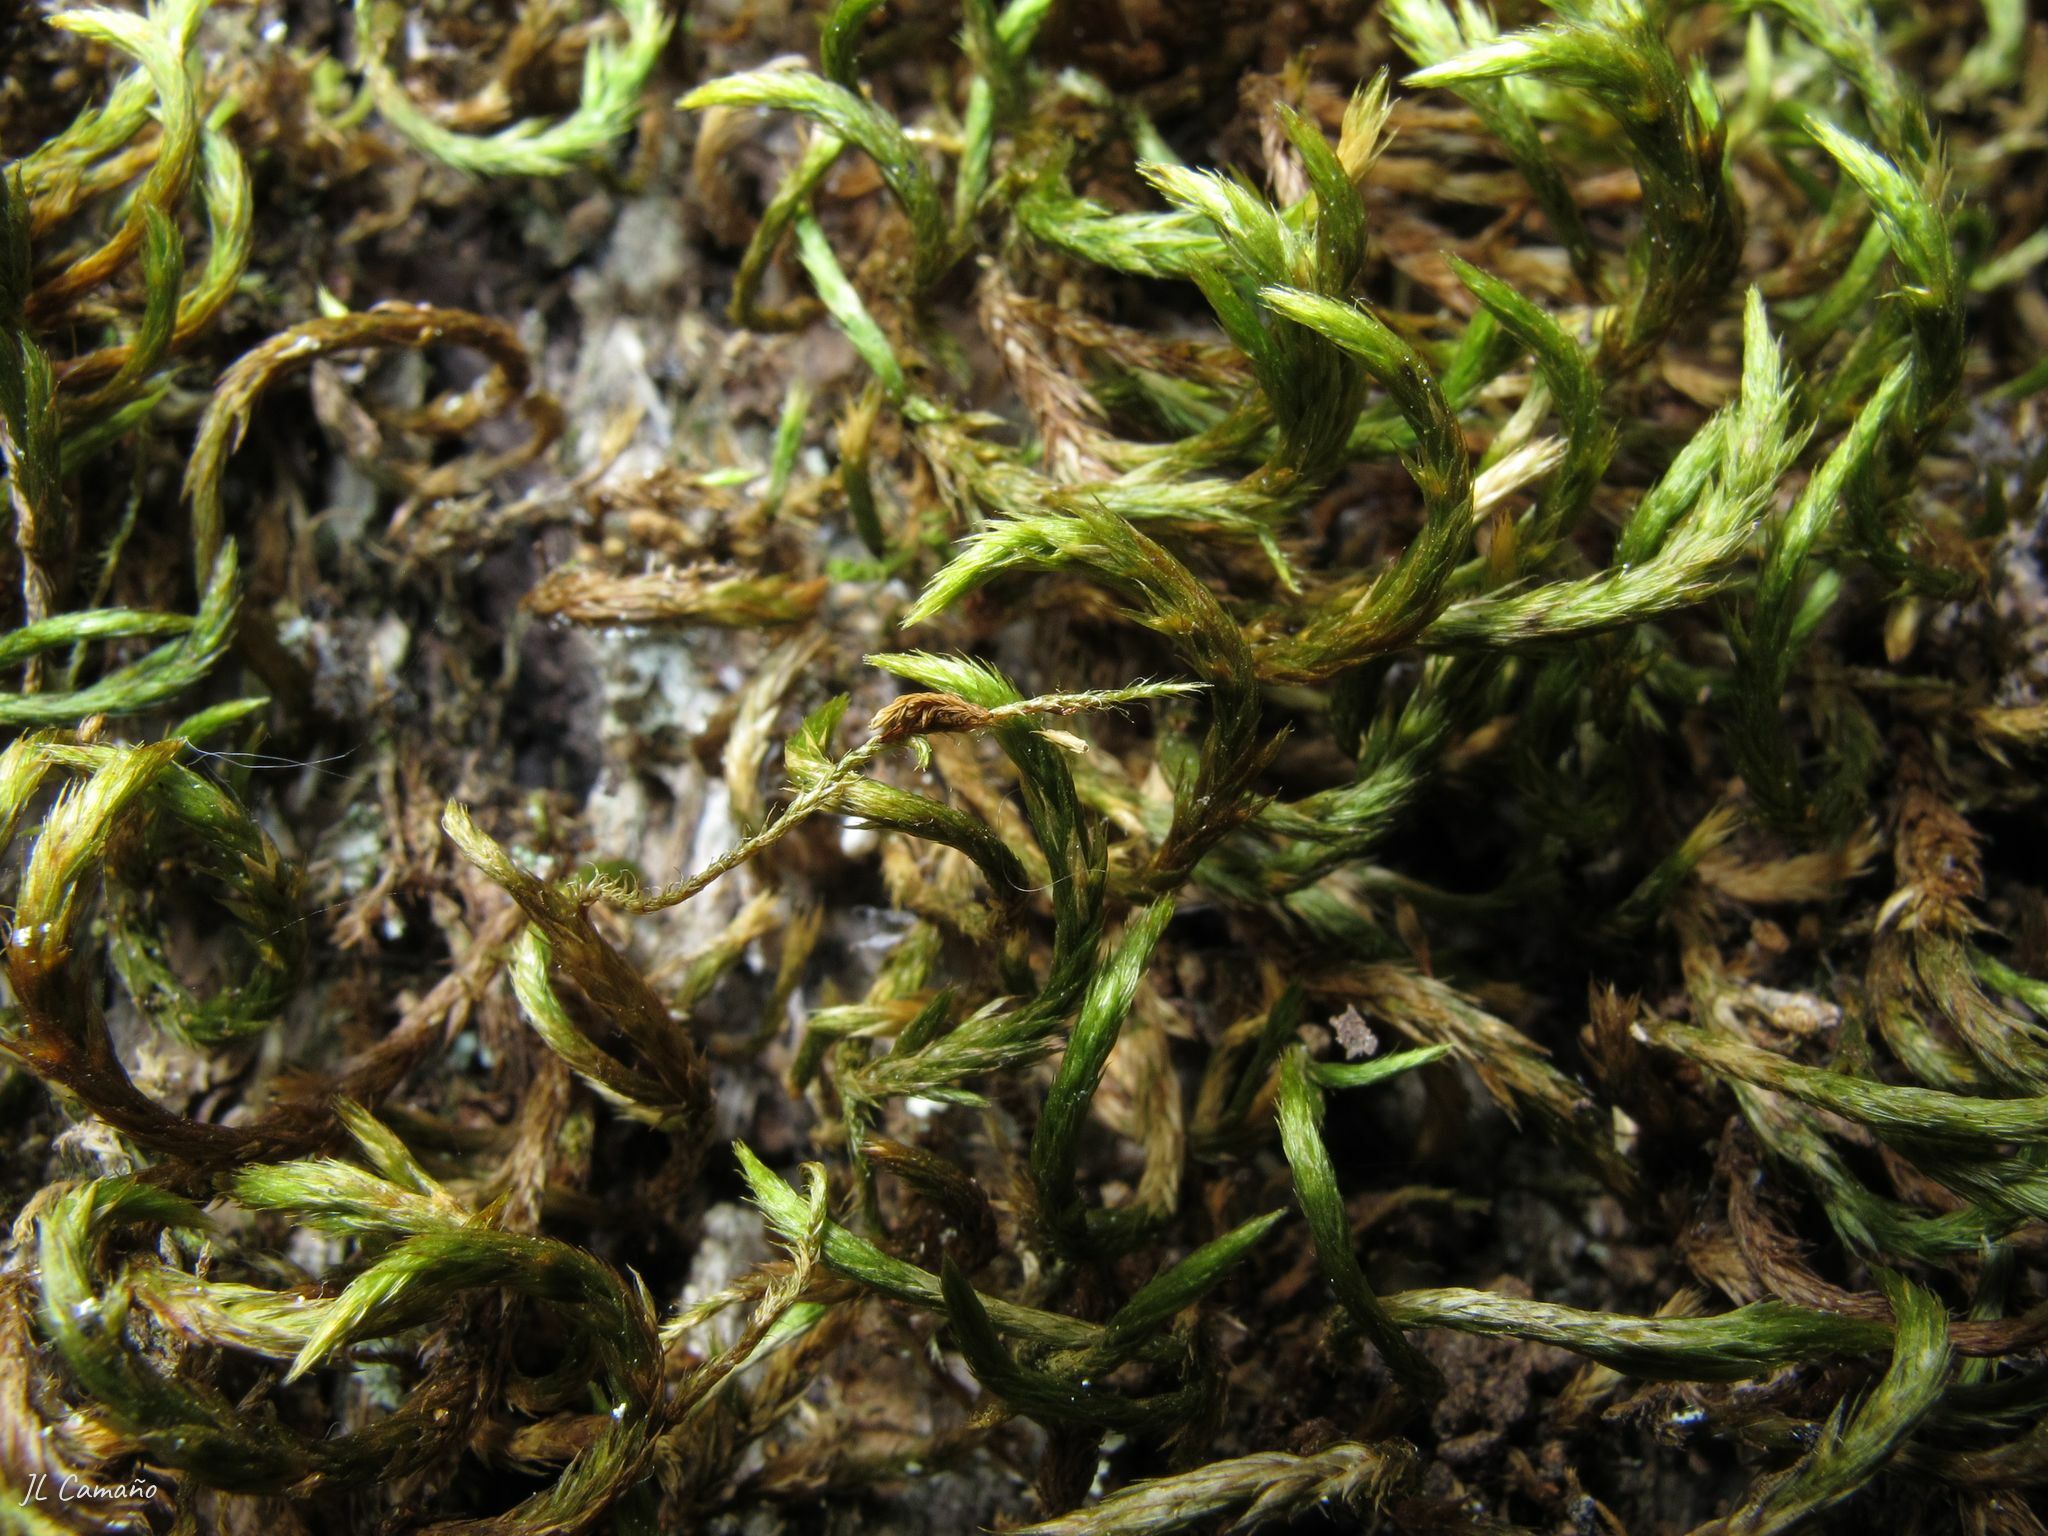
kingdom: Plantae
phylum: Bryophyta
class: Bryopsida
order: Hypnales
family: Leucodontaceae
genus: Leucodon
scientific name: Leucodon sciuroides
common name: Squirrel-tail moss
